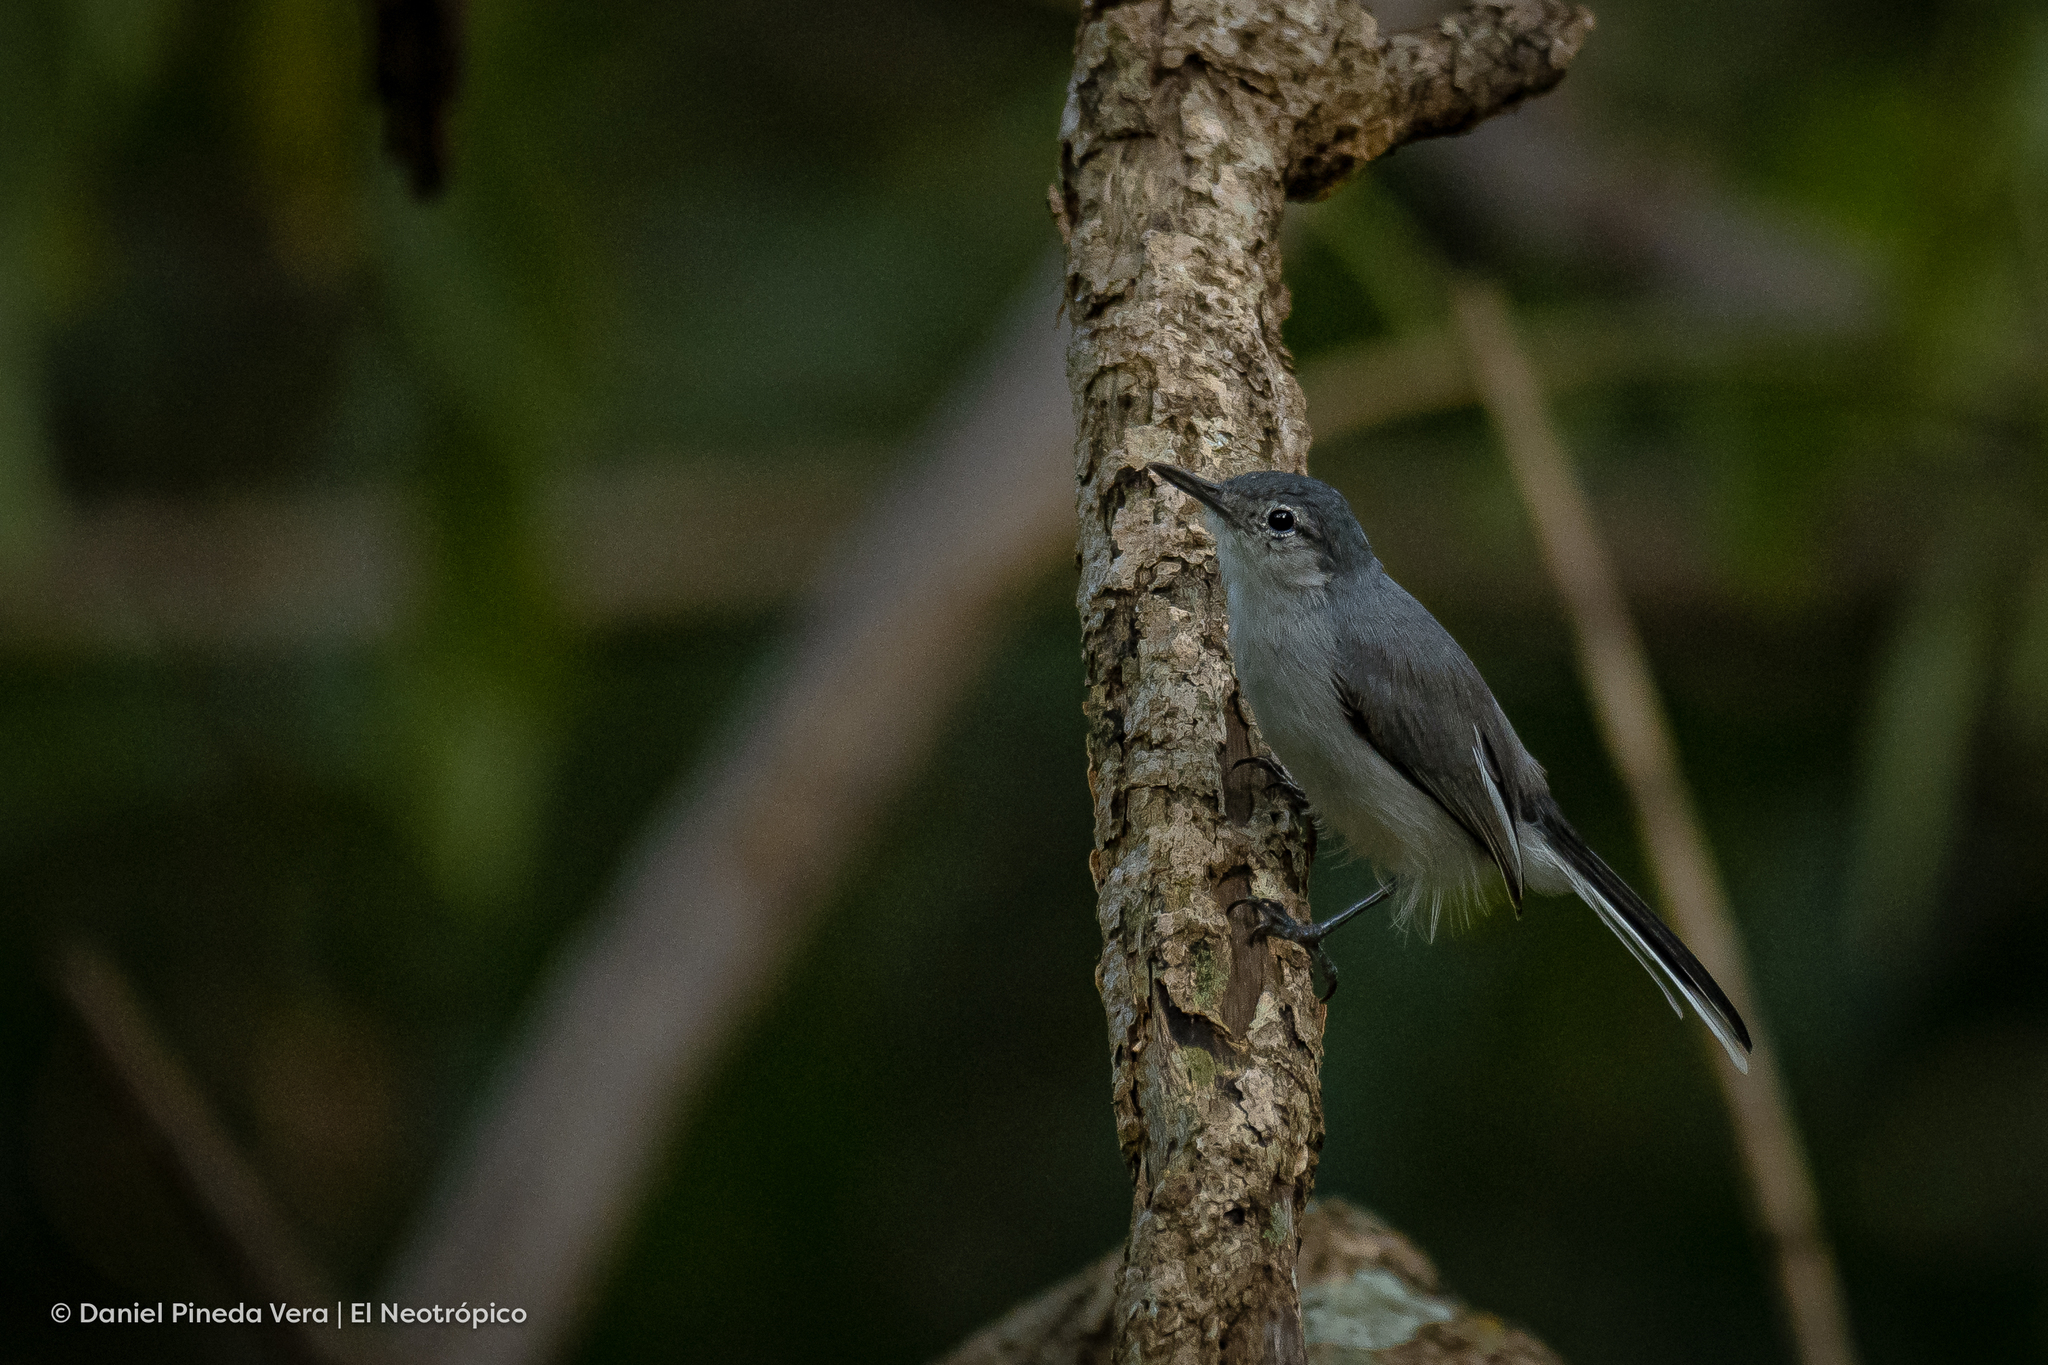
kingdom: Animalia
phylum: Chordata
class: Aves
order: Passeriformes
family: Polioptilidae
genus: Polioptila
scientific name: Polioptila albiloris
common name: White-lored gnatcatcher
